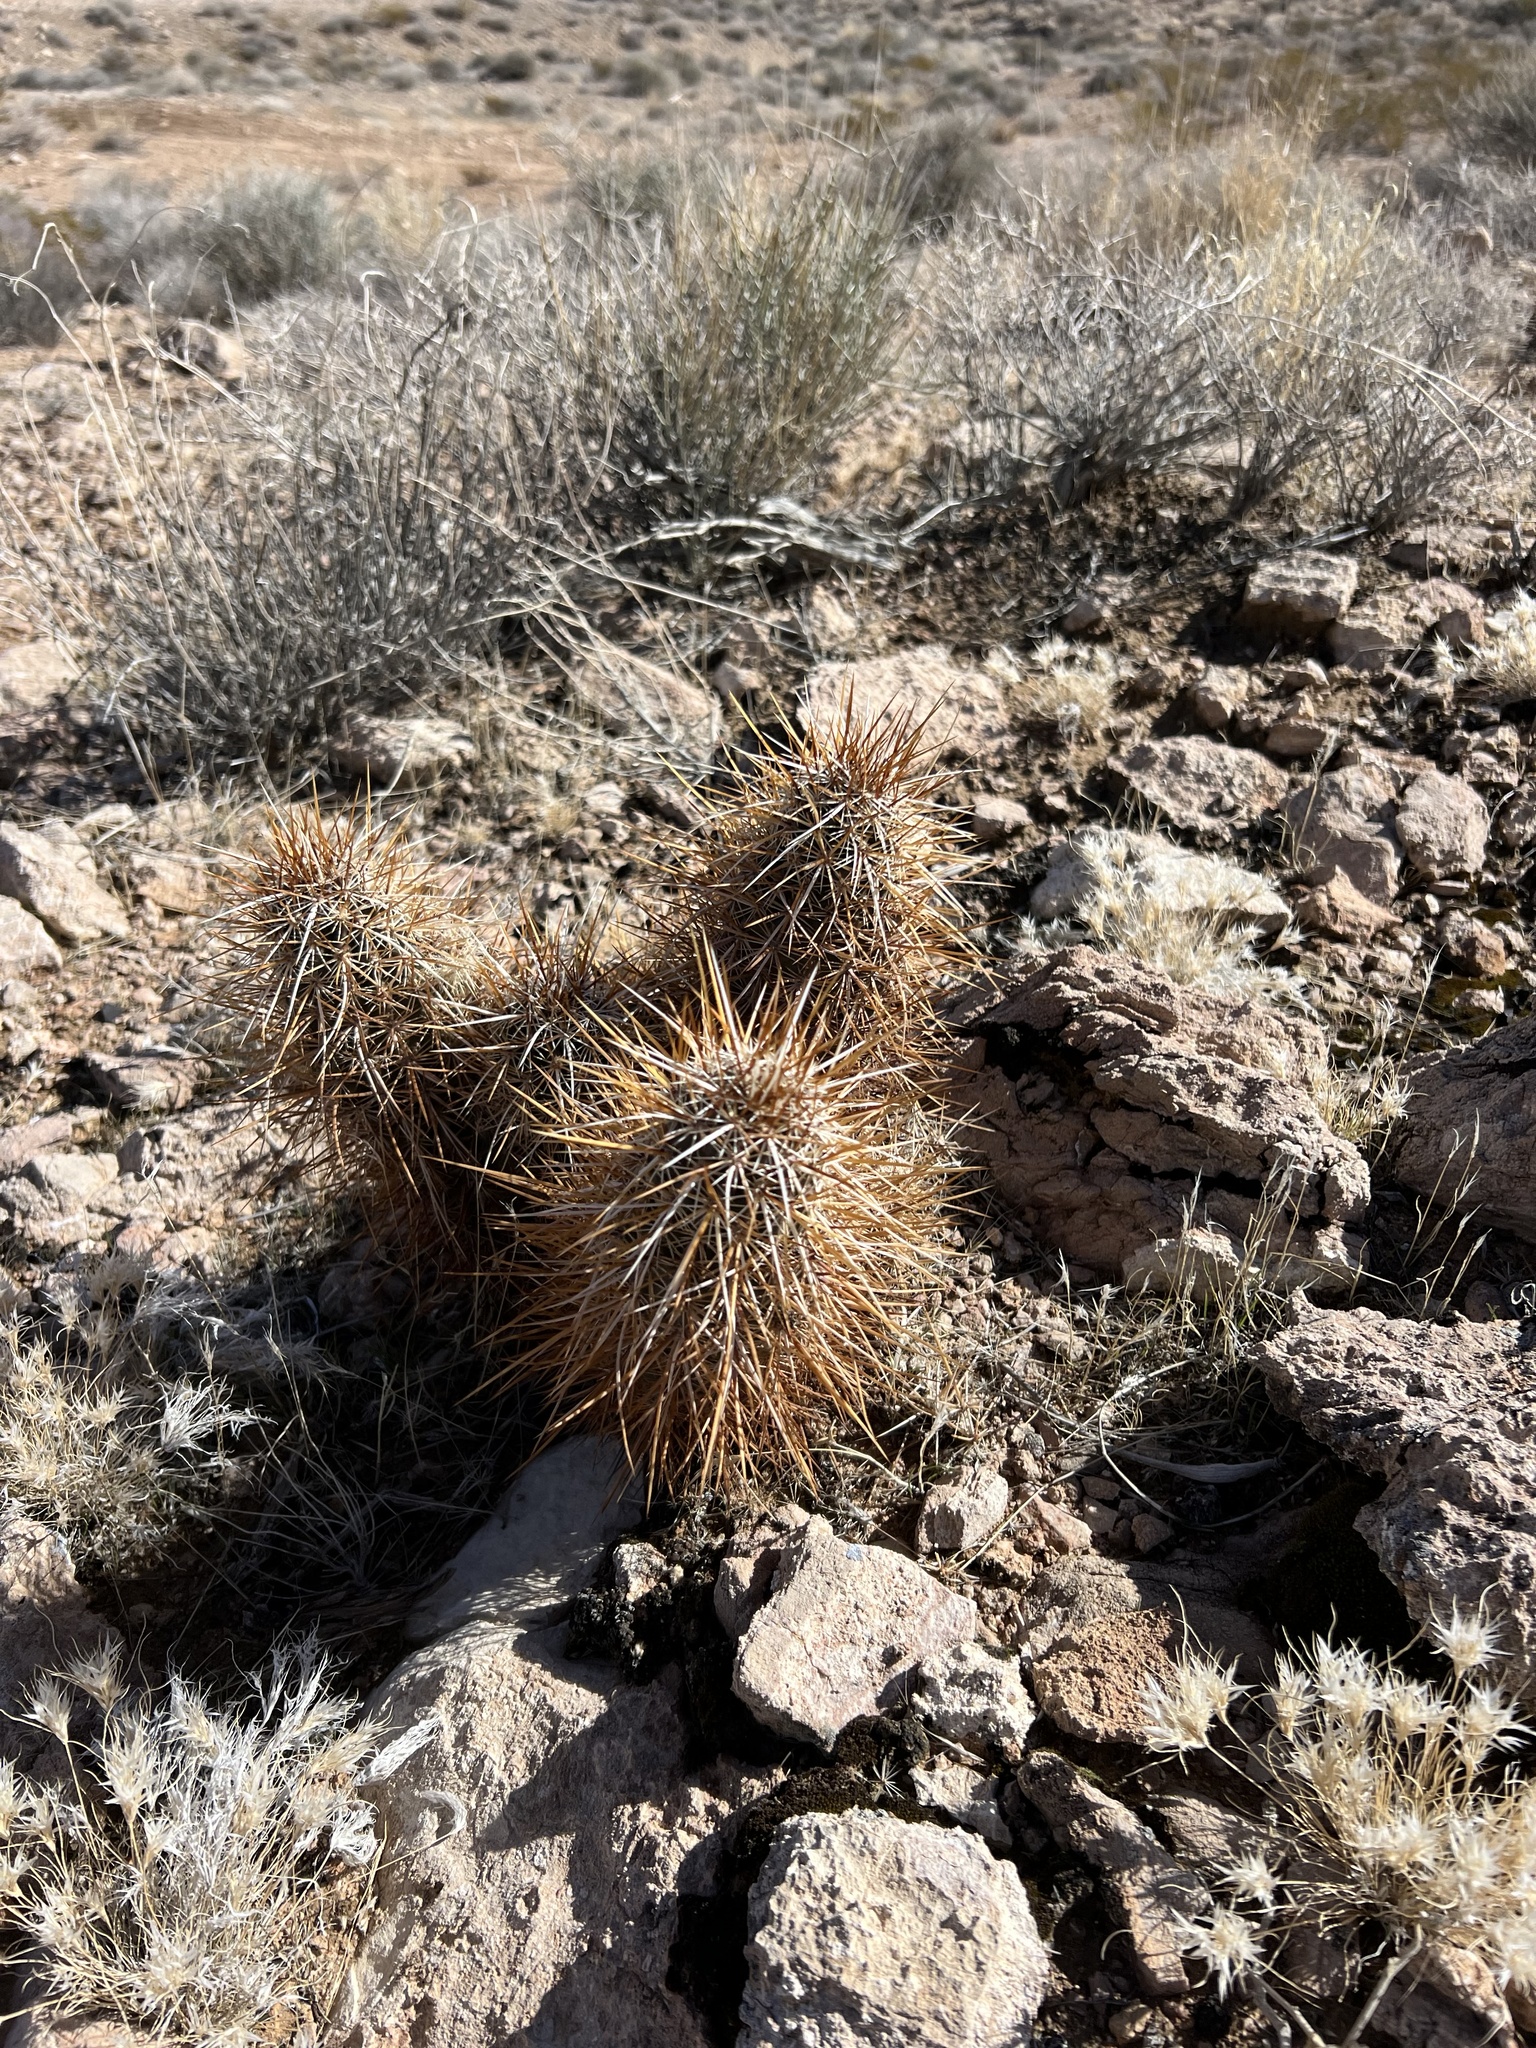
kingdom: Plantae
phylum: Tracheophyta
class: Magnoliopsida
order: Caryophyllales
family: Cactaceae
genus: Echinocereus
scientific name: Echinocereus engelmannii
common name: Engelmann's hedgehog cactus
